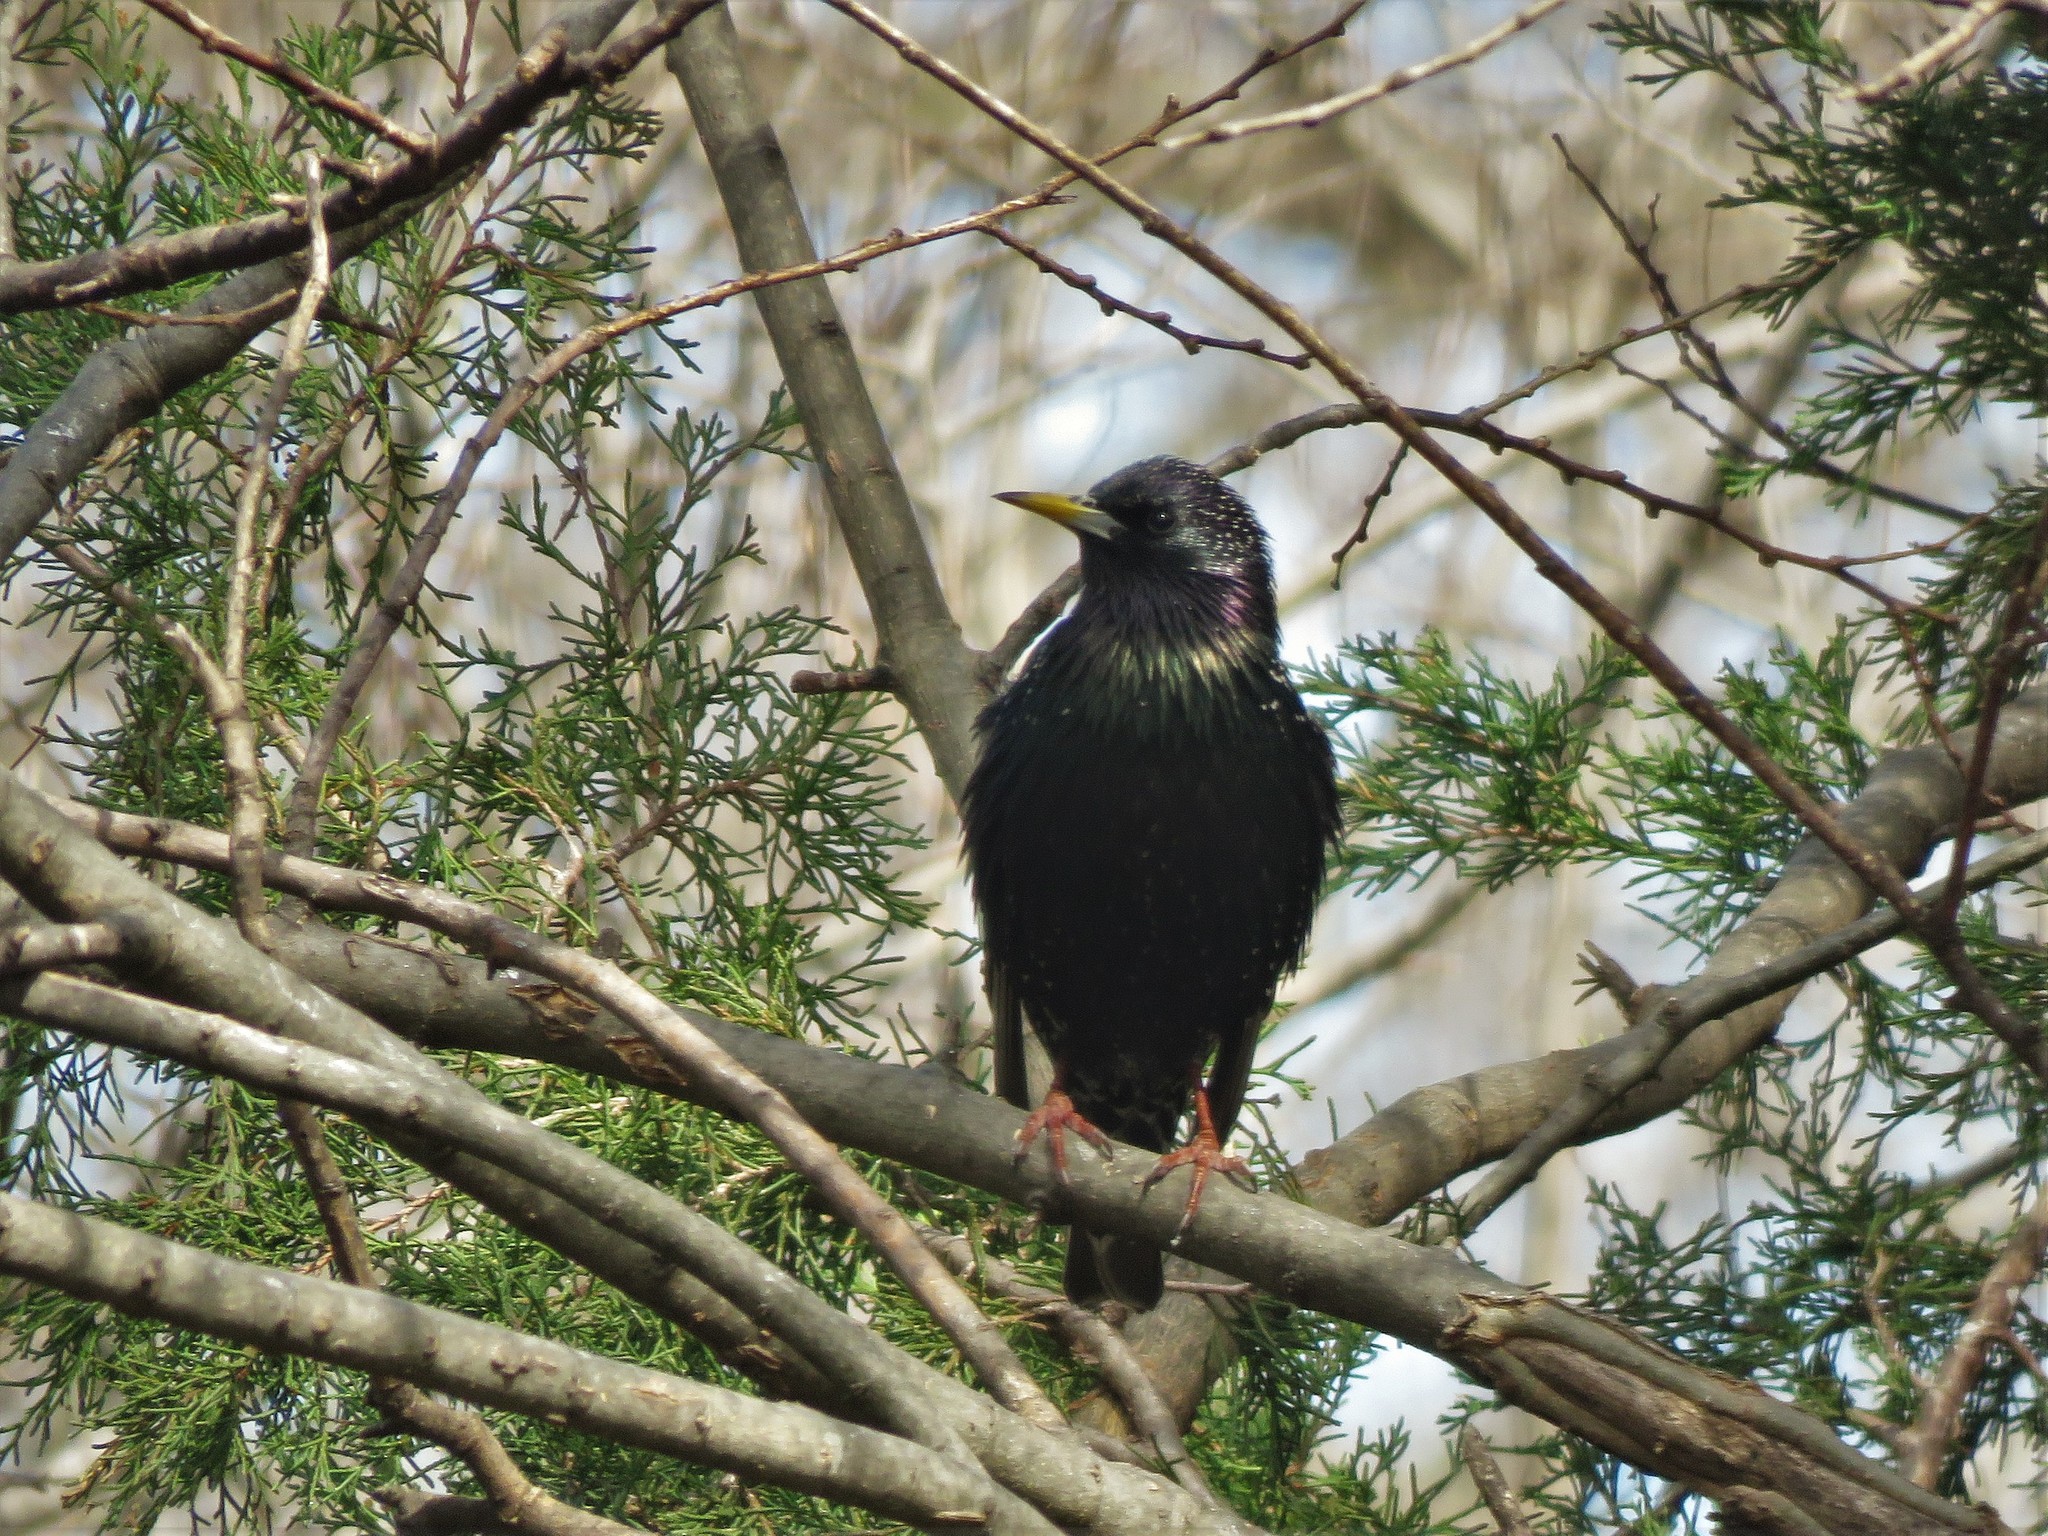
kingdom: Animalia
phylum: Chordata
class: Aves
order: Passeriformes
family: Sturnidae
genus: Sturnus
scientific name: Sturnus vulgaris
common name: Common starling
